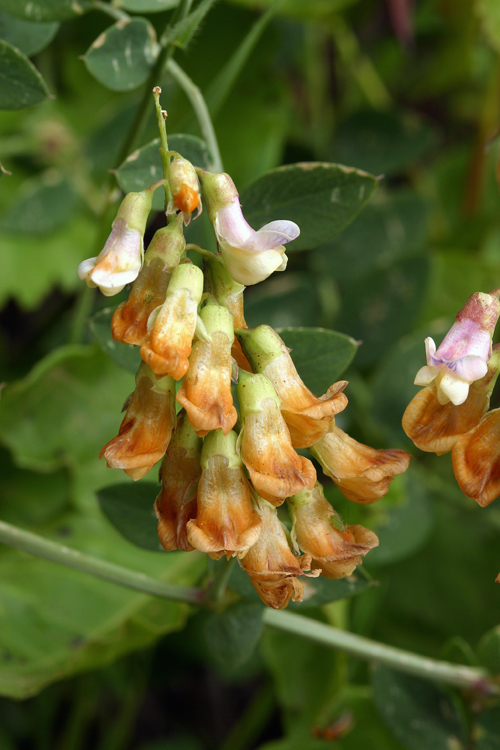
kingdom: Plantae
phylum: Tracheophyta
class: Magnoliopsida
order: Fabales
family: Fabaceae
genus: Lathyrus
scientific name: Lathyrus sulphureus
